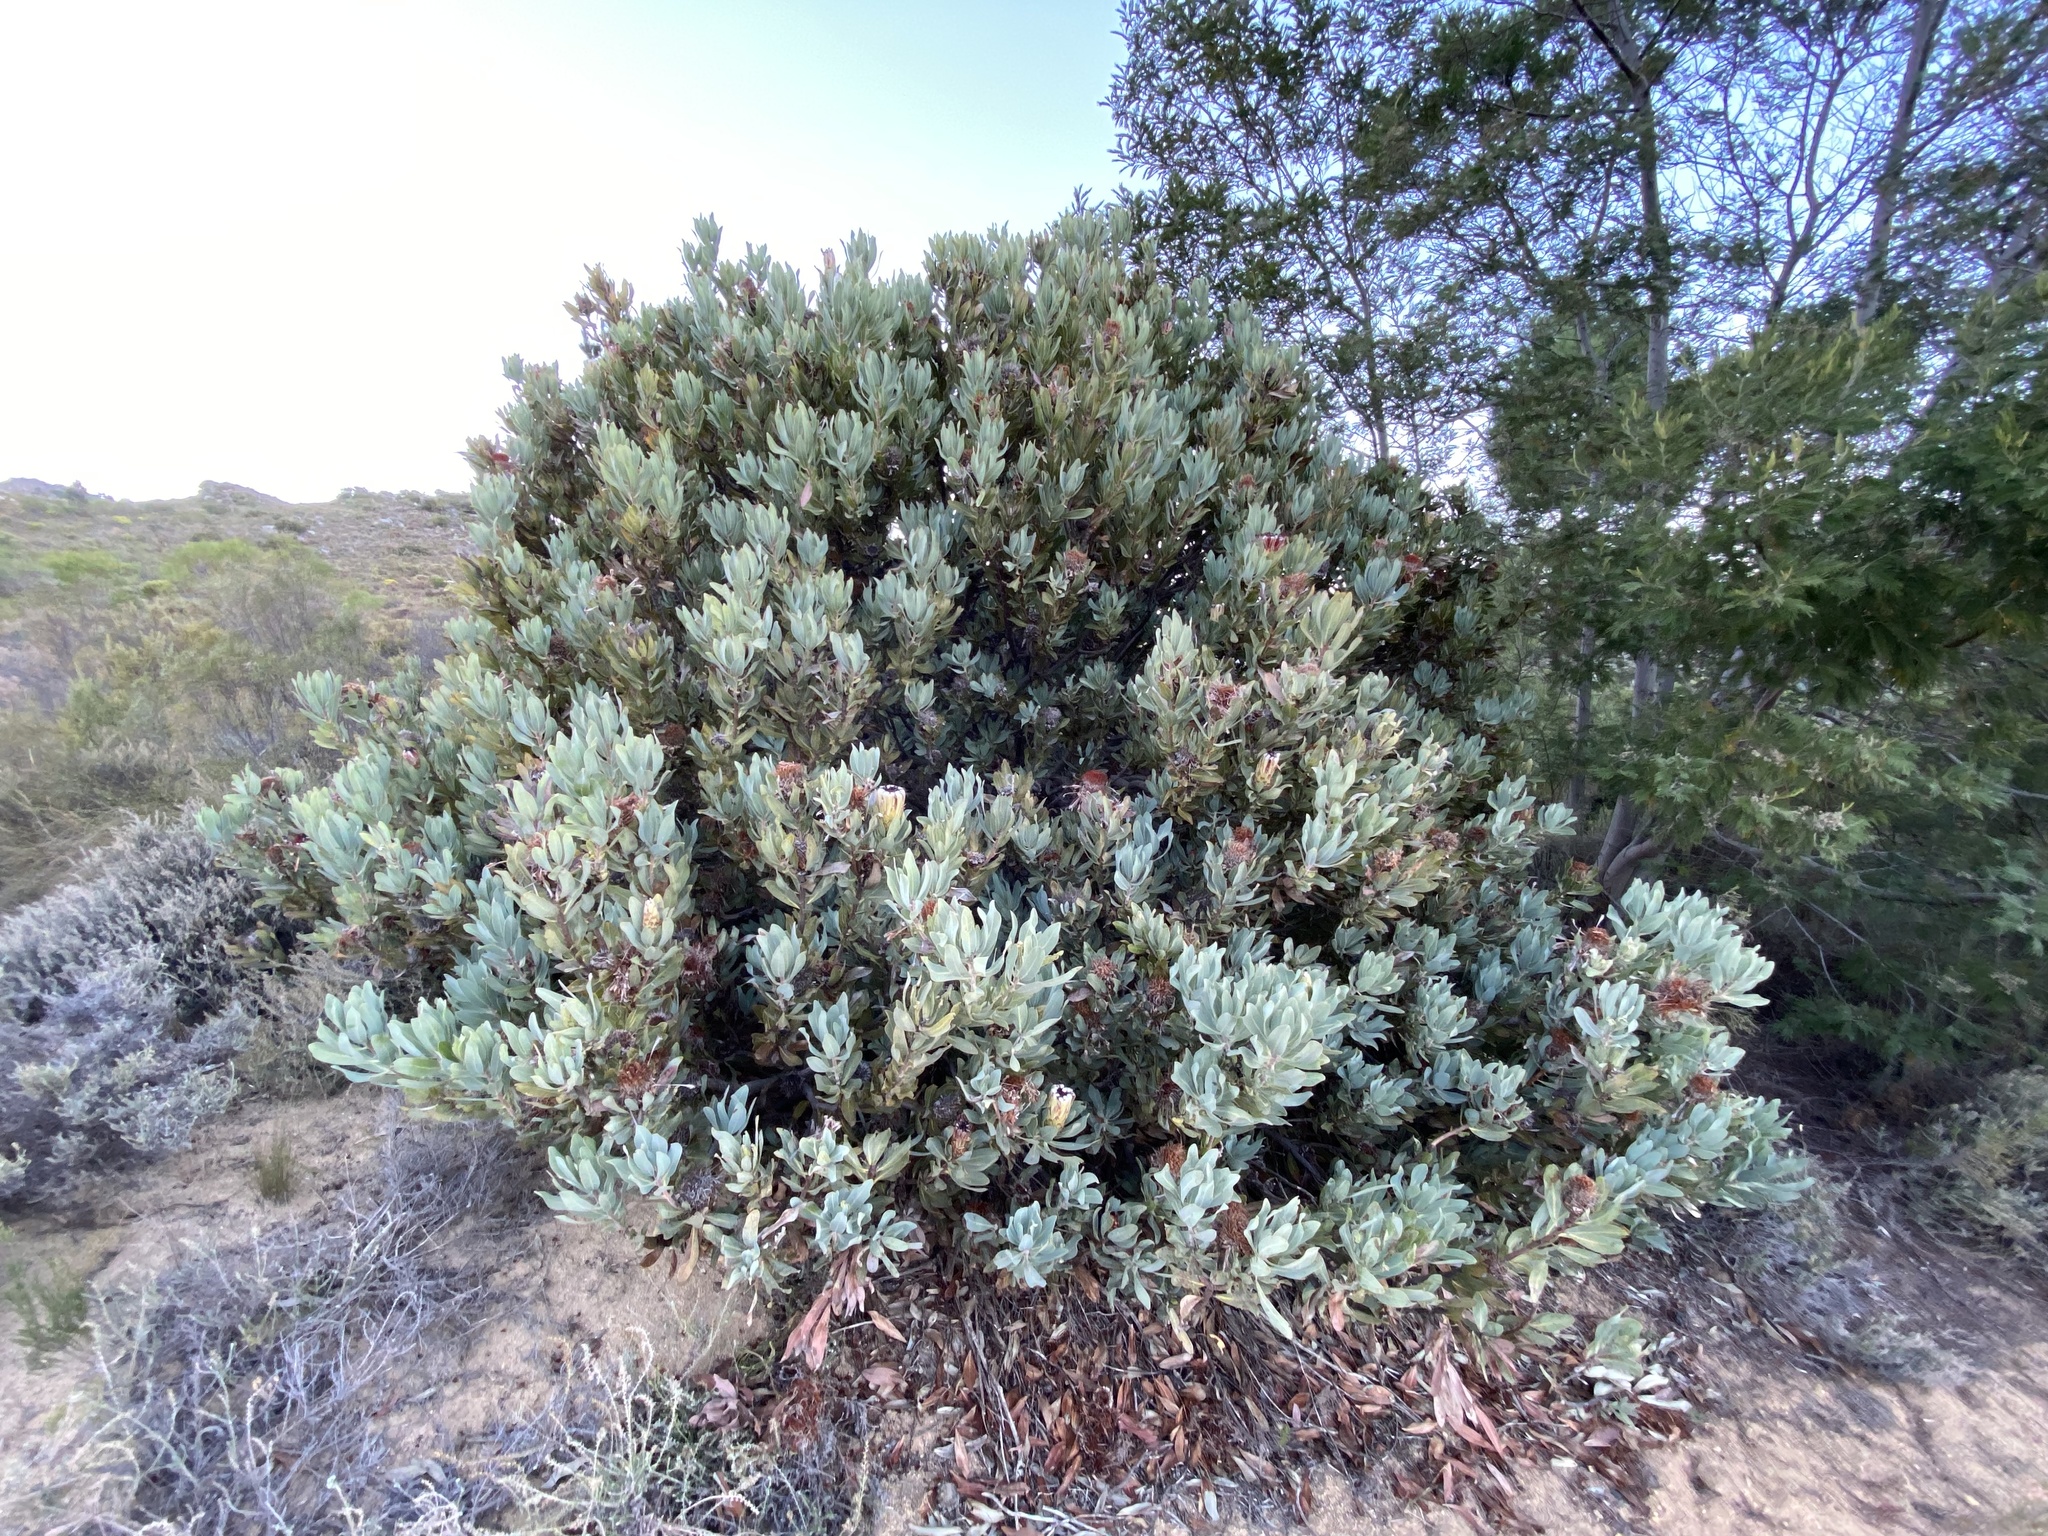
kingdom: Plantae
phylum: Tracheophyta
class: Magnoliopsida
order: Proteales
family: Proteaceae
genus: Protea
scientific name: Protea laurifolia
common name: Grey-leaf sugarbsh
